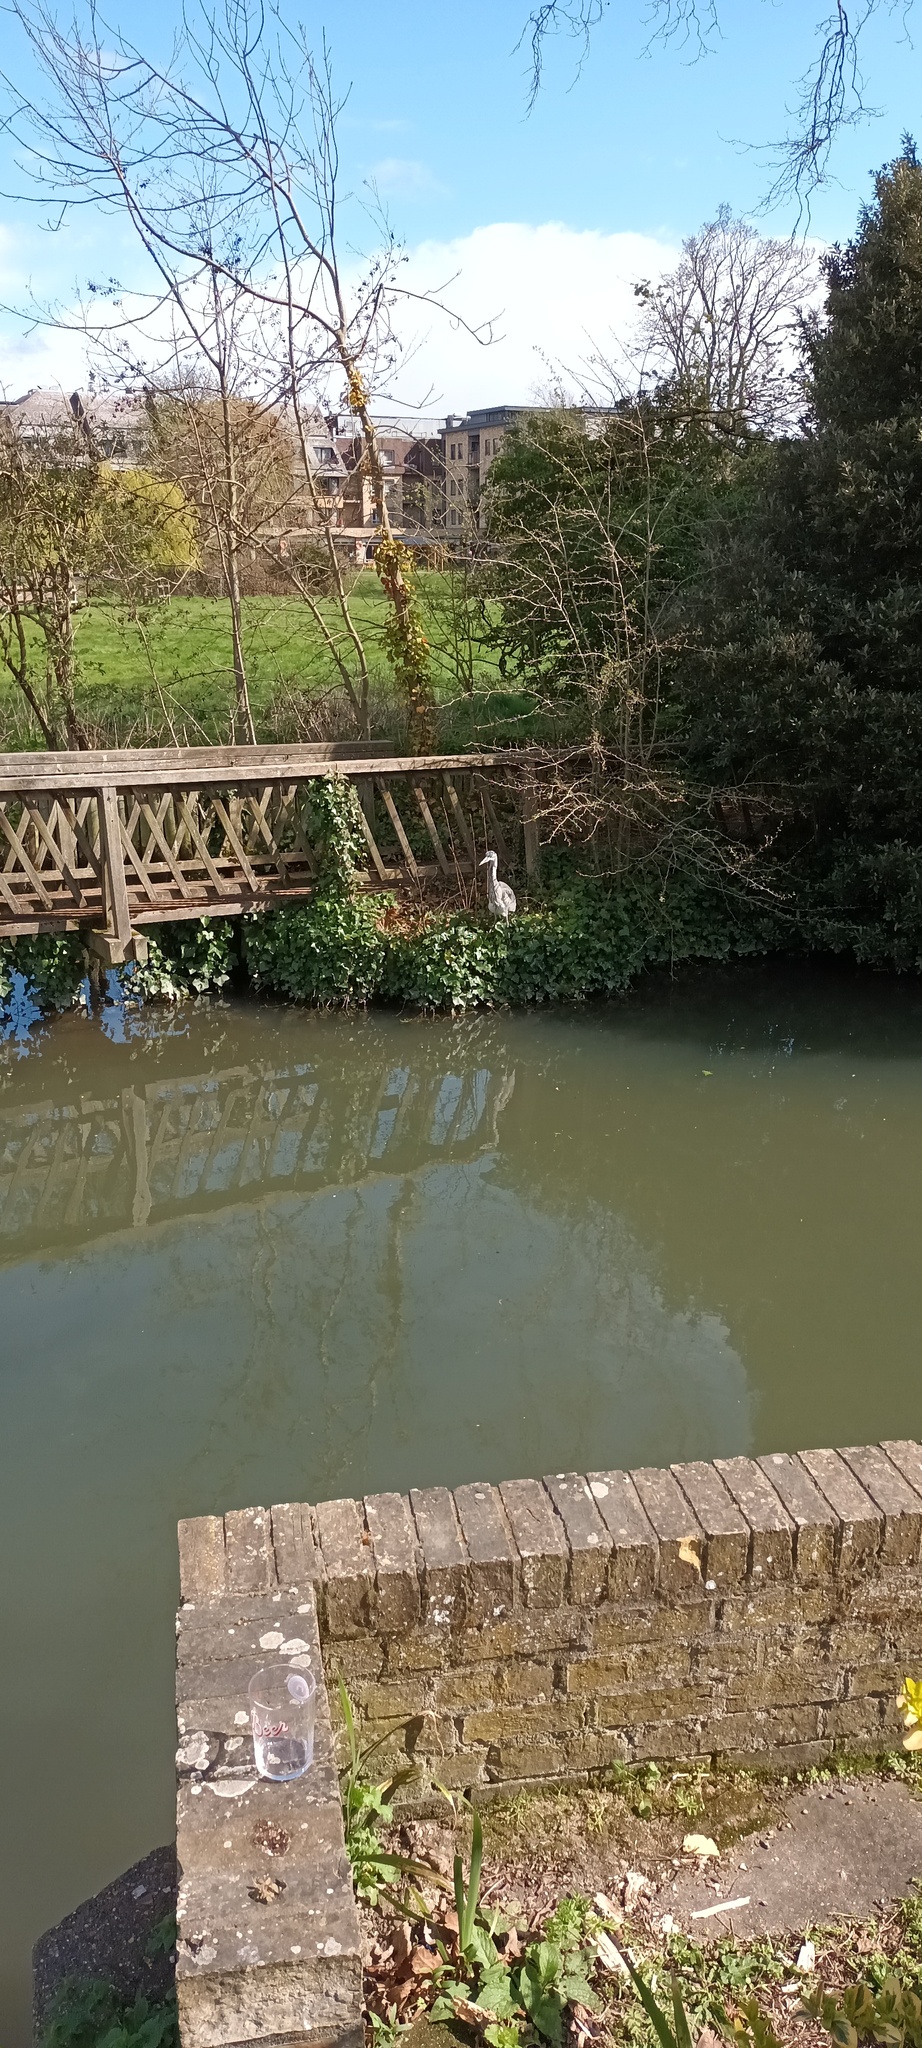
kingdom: Animalia
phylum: Chordata
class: Aves
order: Pelecaniformes
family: Ardeidae
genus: Ardea
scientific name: Ardea cinerea
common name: Grey heron
